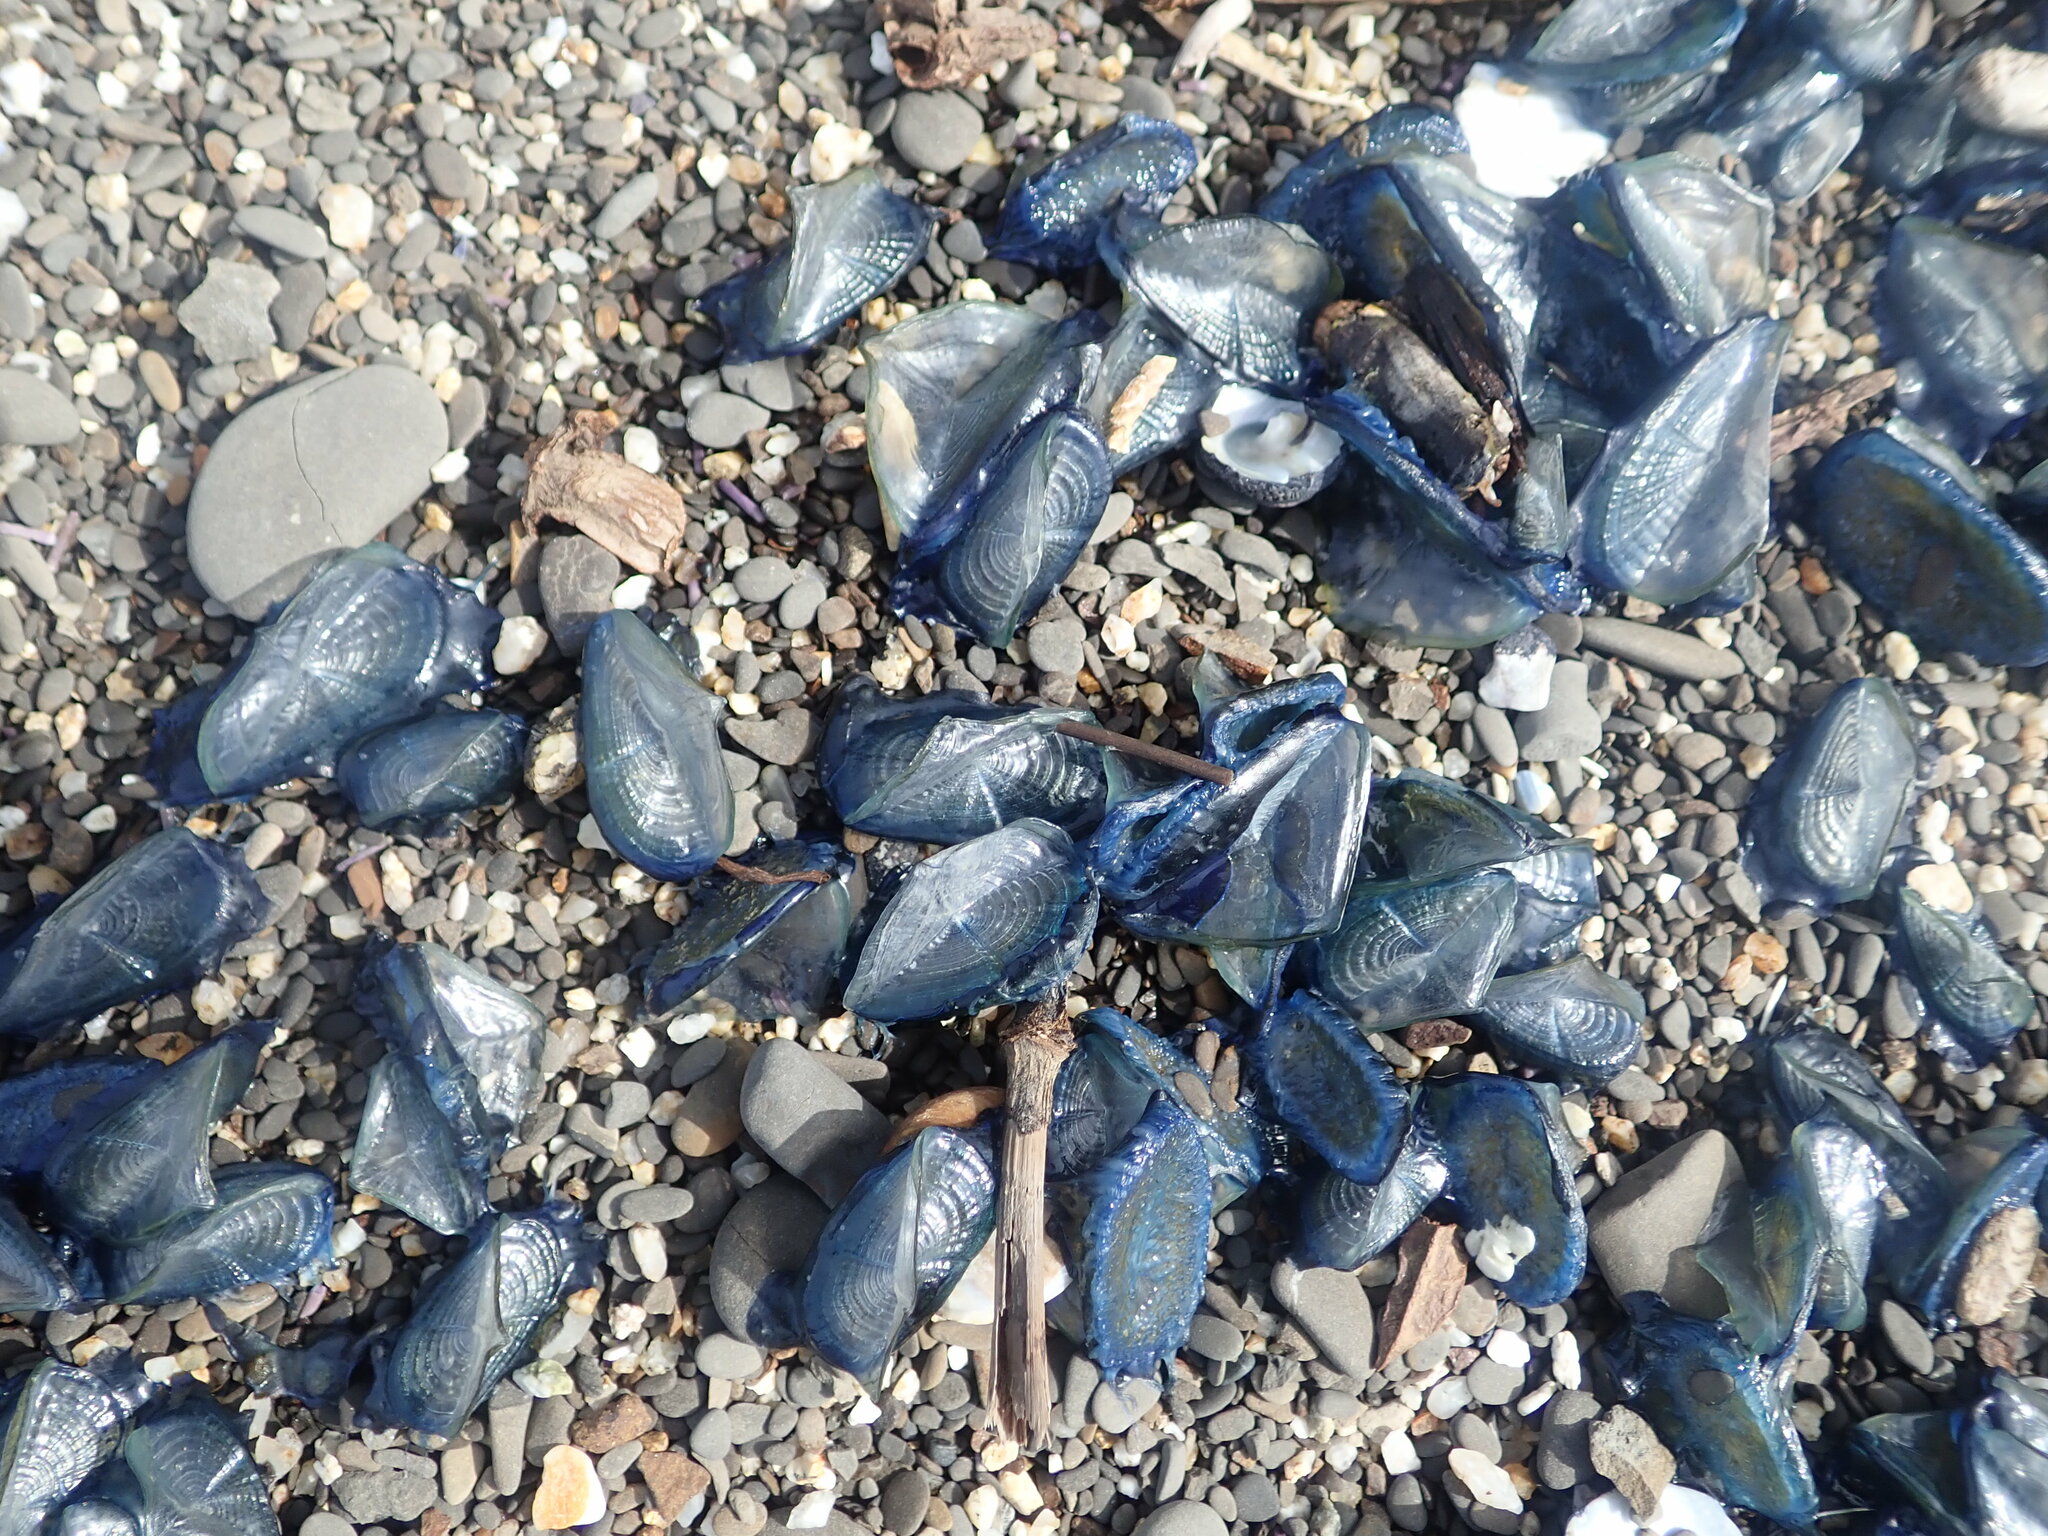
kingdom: Animalia
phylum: Cnidaria
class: Hydrozoa
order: Anthoathecata
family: Porpitidae
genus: Velella
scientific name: Velella velella
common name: By-the-wind-sailor
